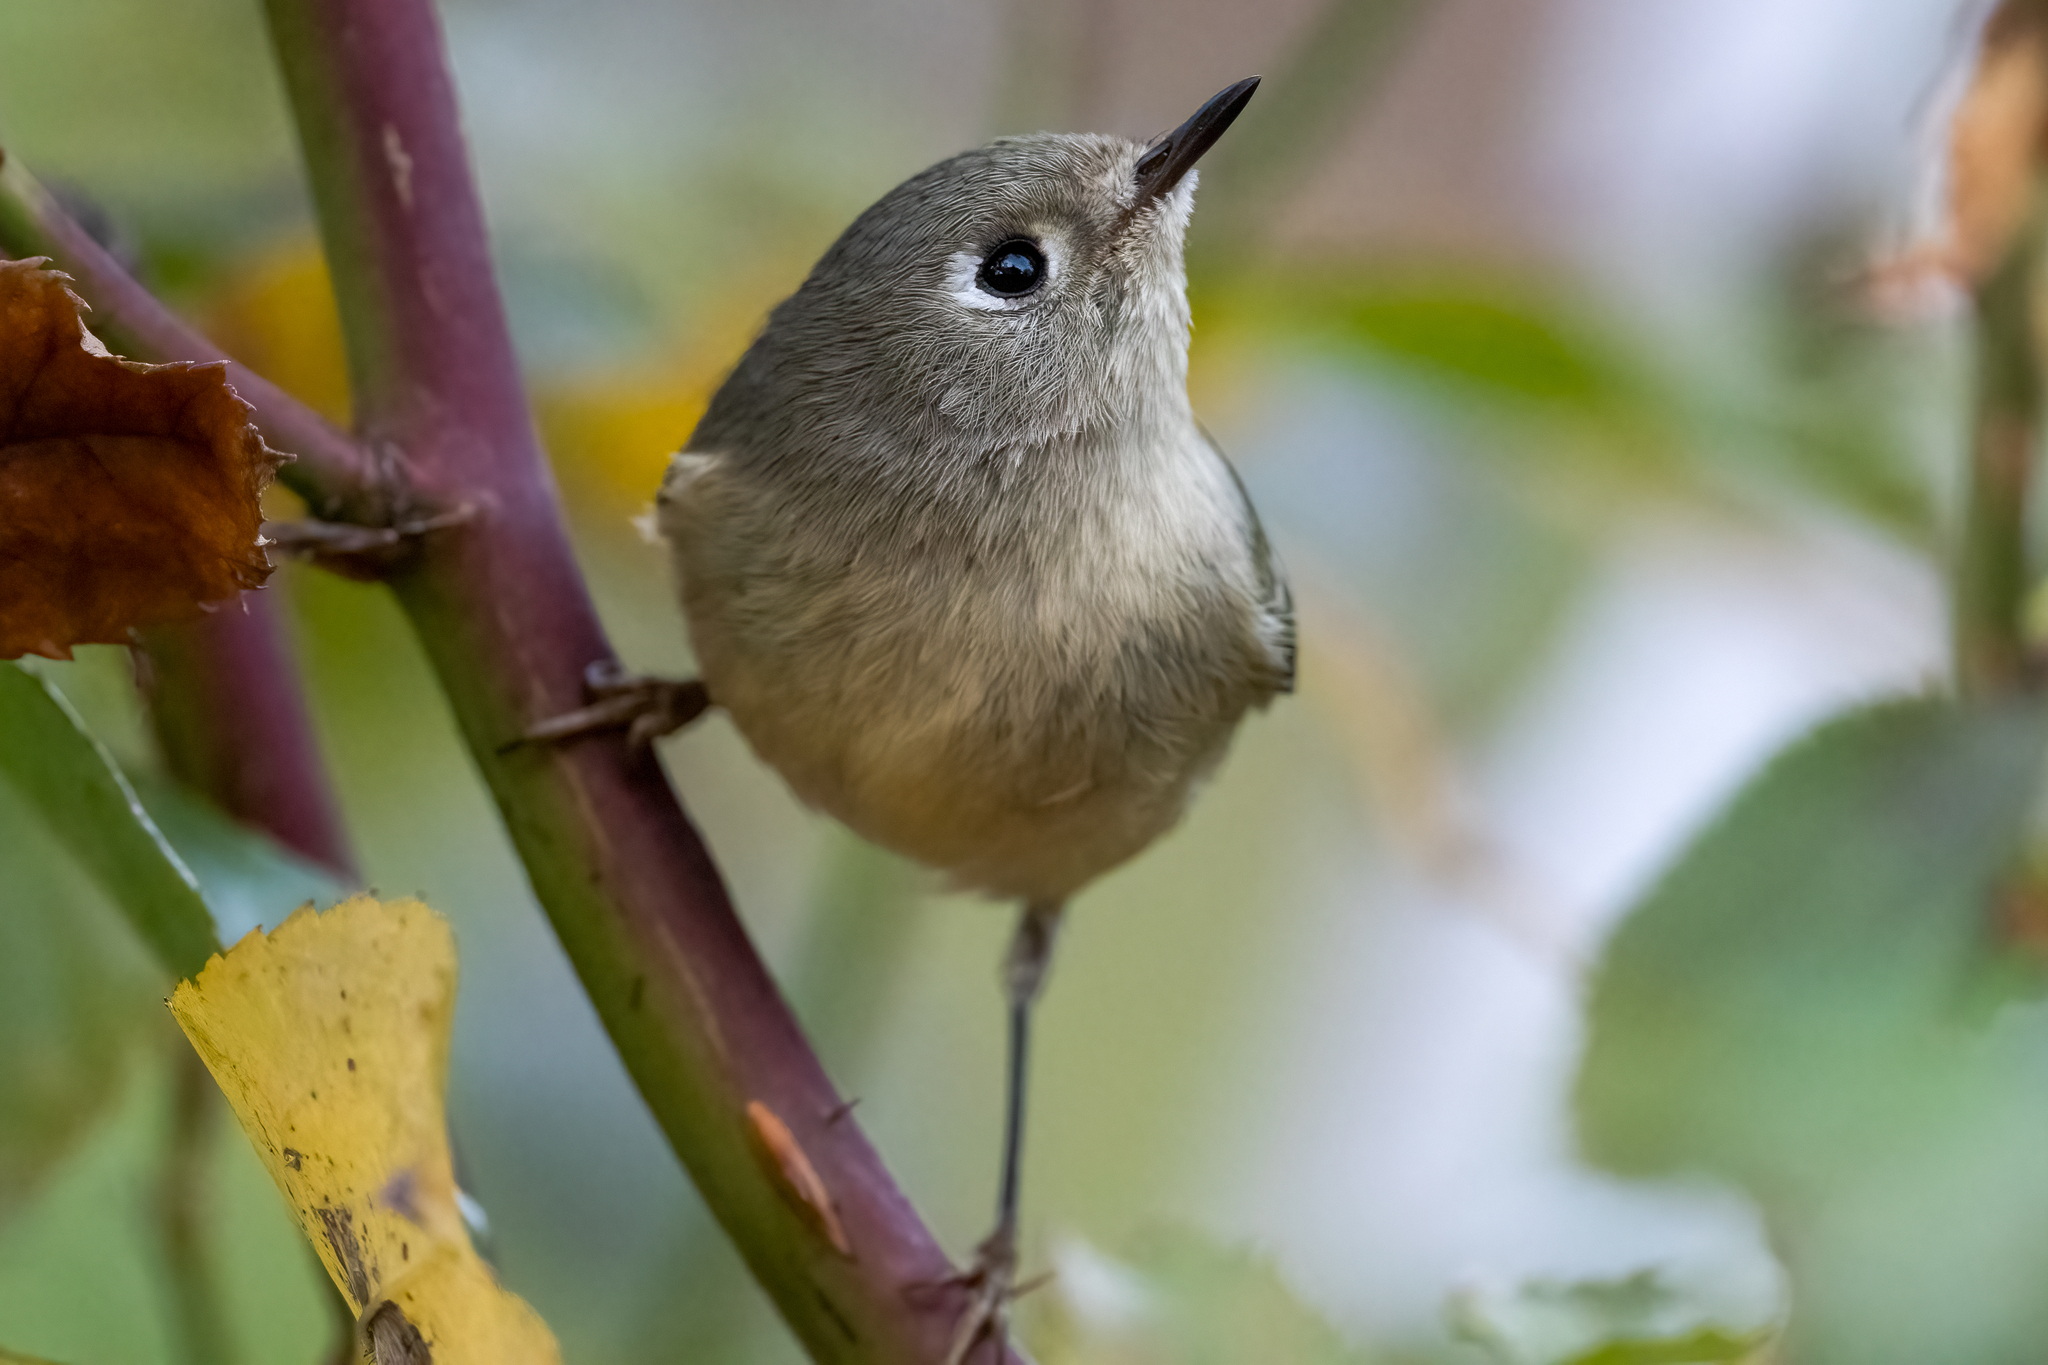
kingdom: Animalia
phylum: Chordata
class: Aves
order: Passeriformes
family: Regulidae
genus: Regulus
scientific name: Regulus calendula
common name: Ruby-crowned kinglet
